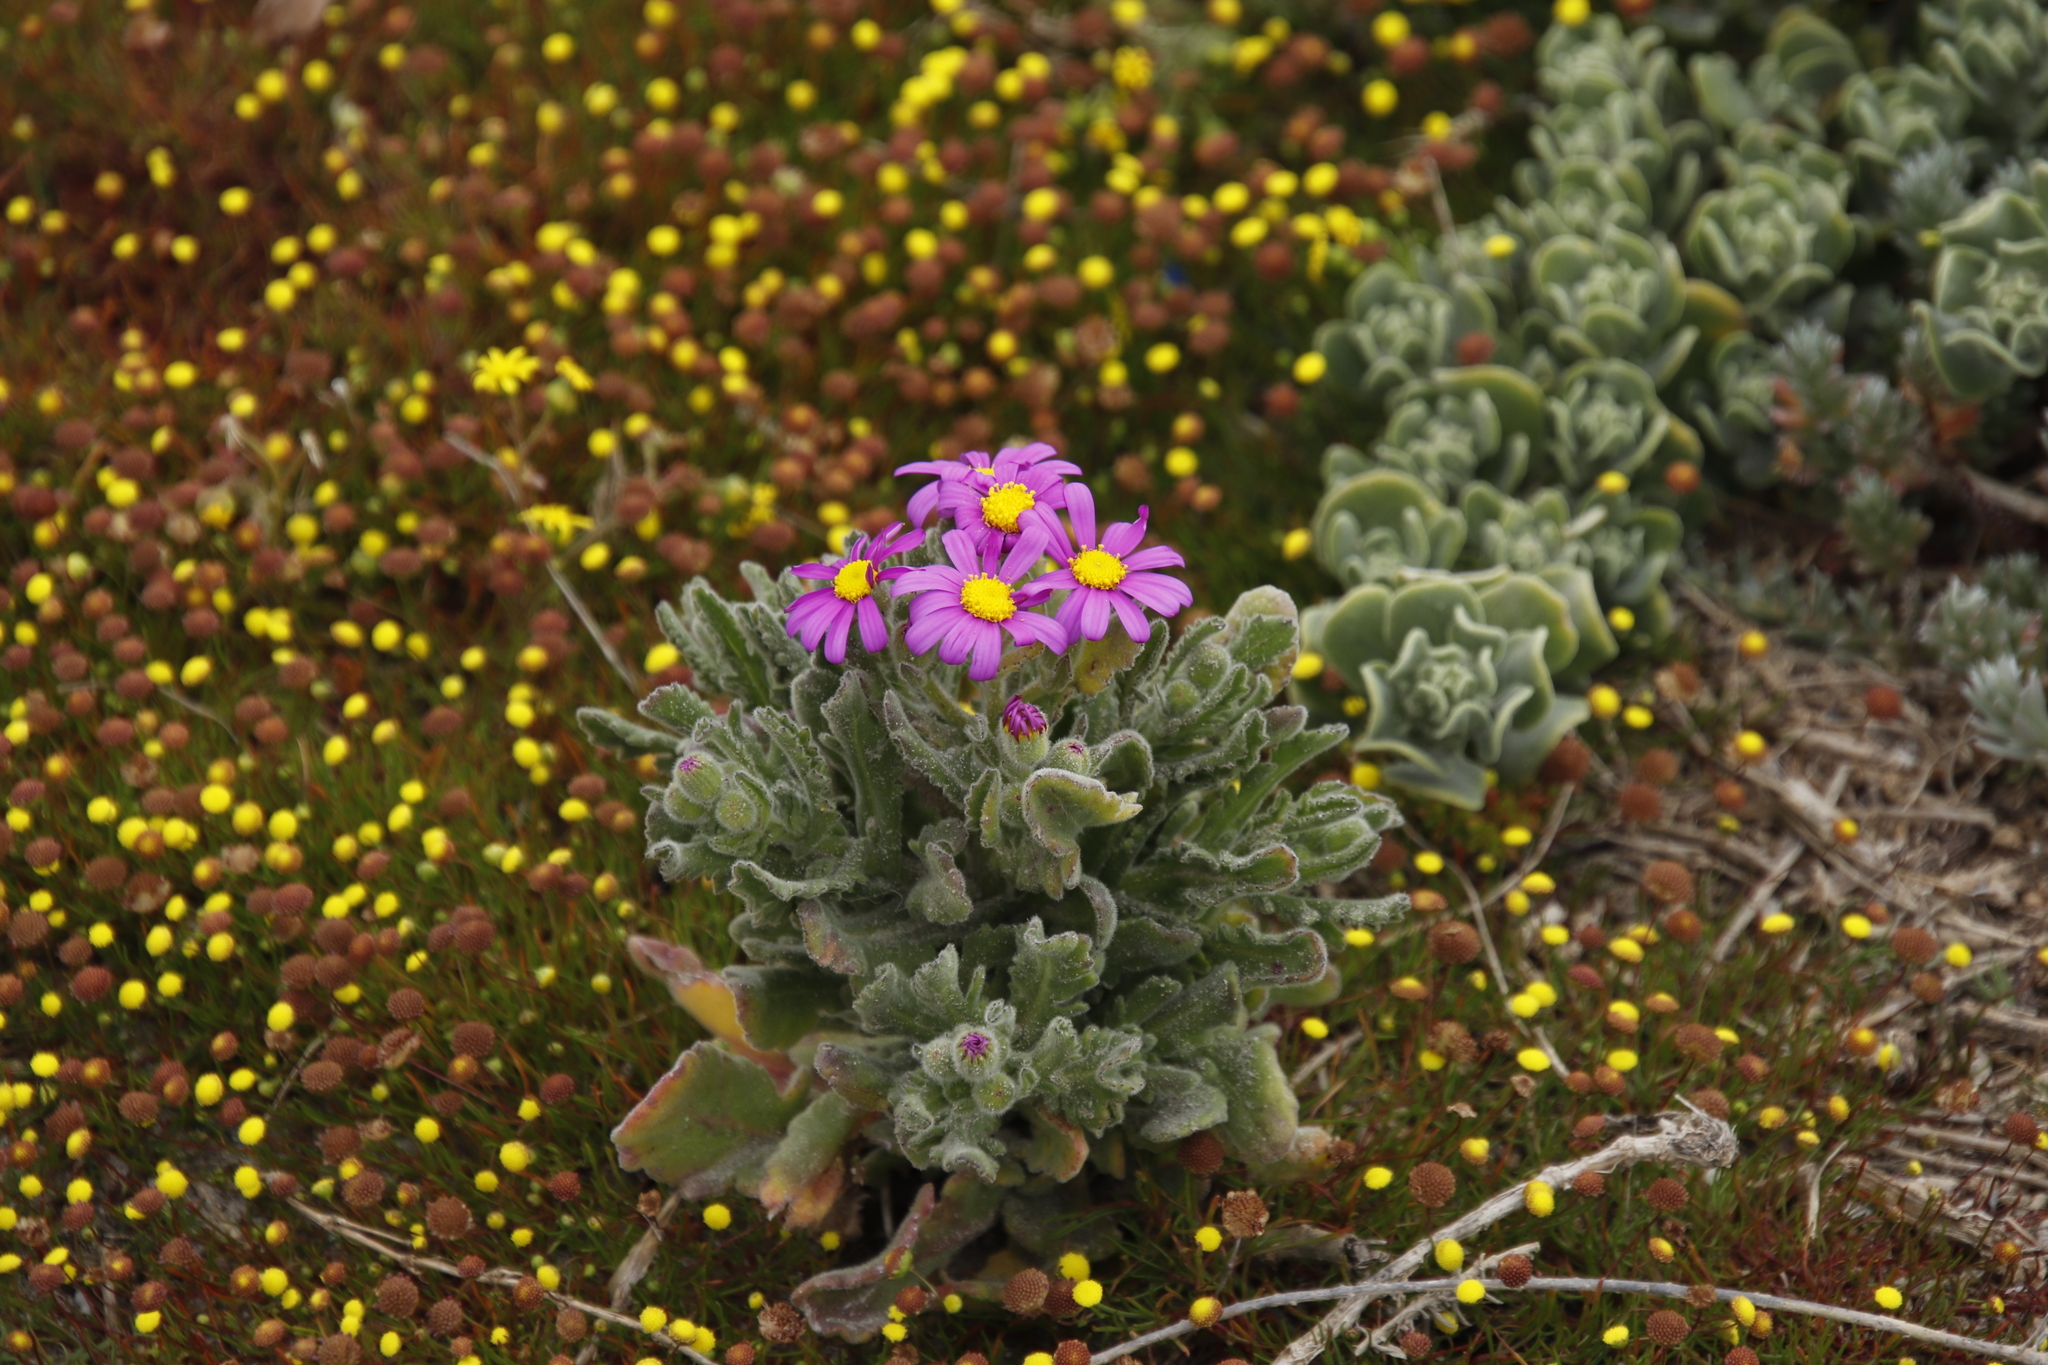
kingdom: Plantae
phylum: Tracheophyta
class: Magnoliopsida
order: Asterales
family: Asteraceae
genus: Senecio
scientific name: Senecio arenarius
